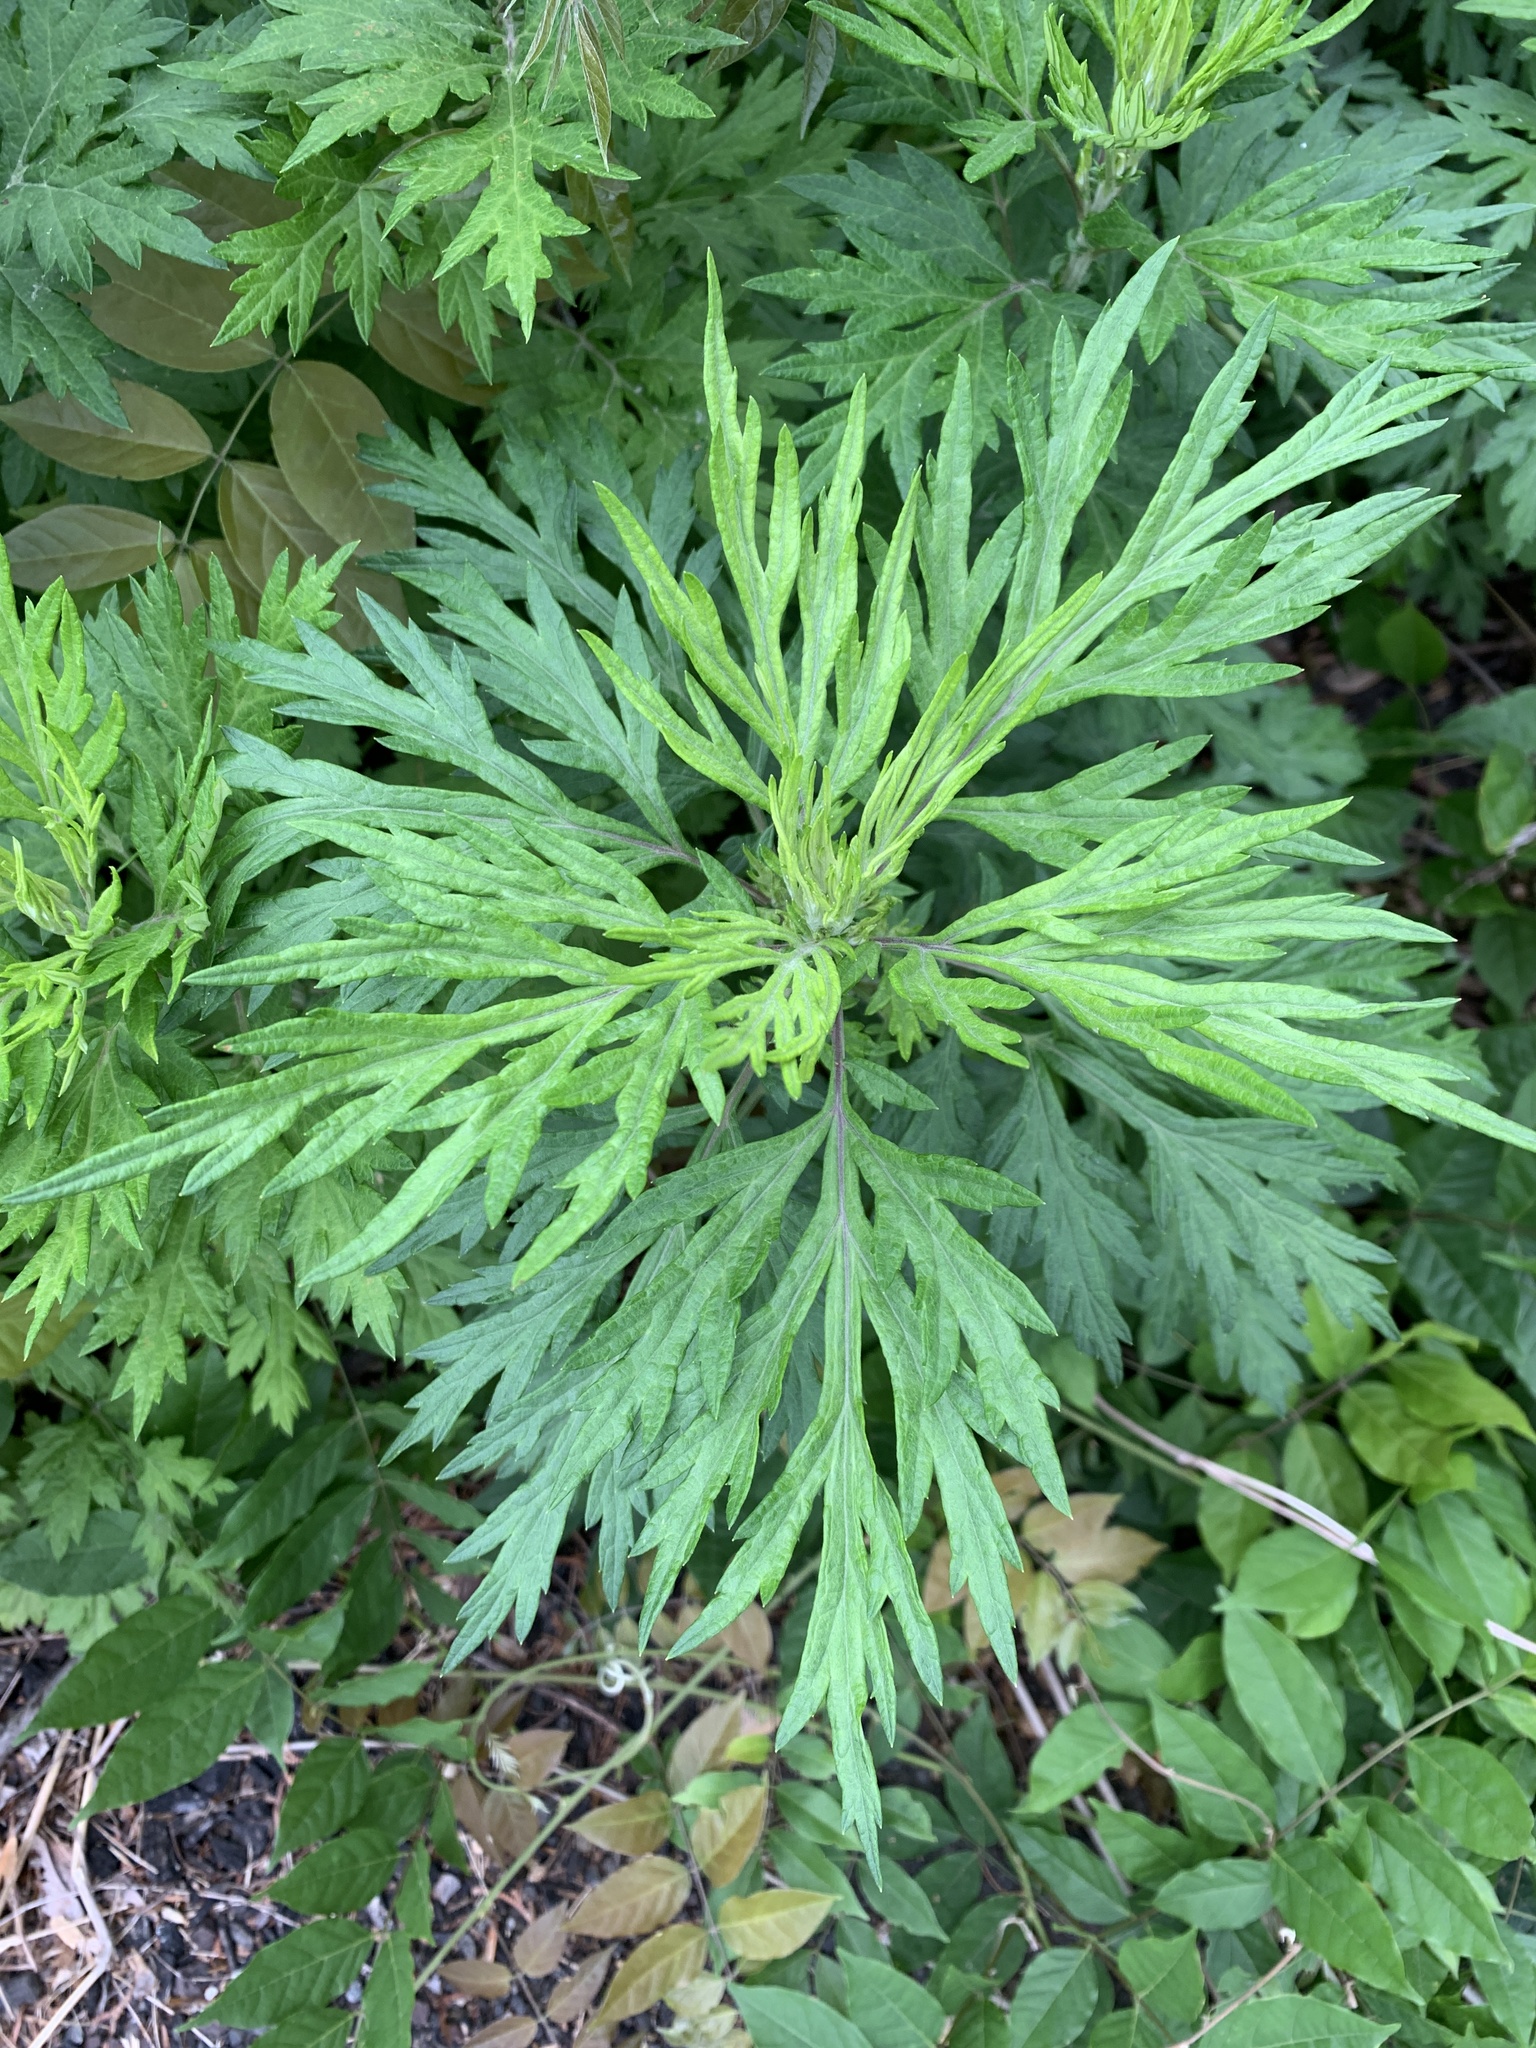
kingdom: Plantae
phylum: Tracheophyta
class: Magnoliopsida
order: Asterales
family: Asteraceae
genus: Artemisia
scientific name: Artemisia vulgaris
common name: Mugwort
